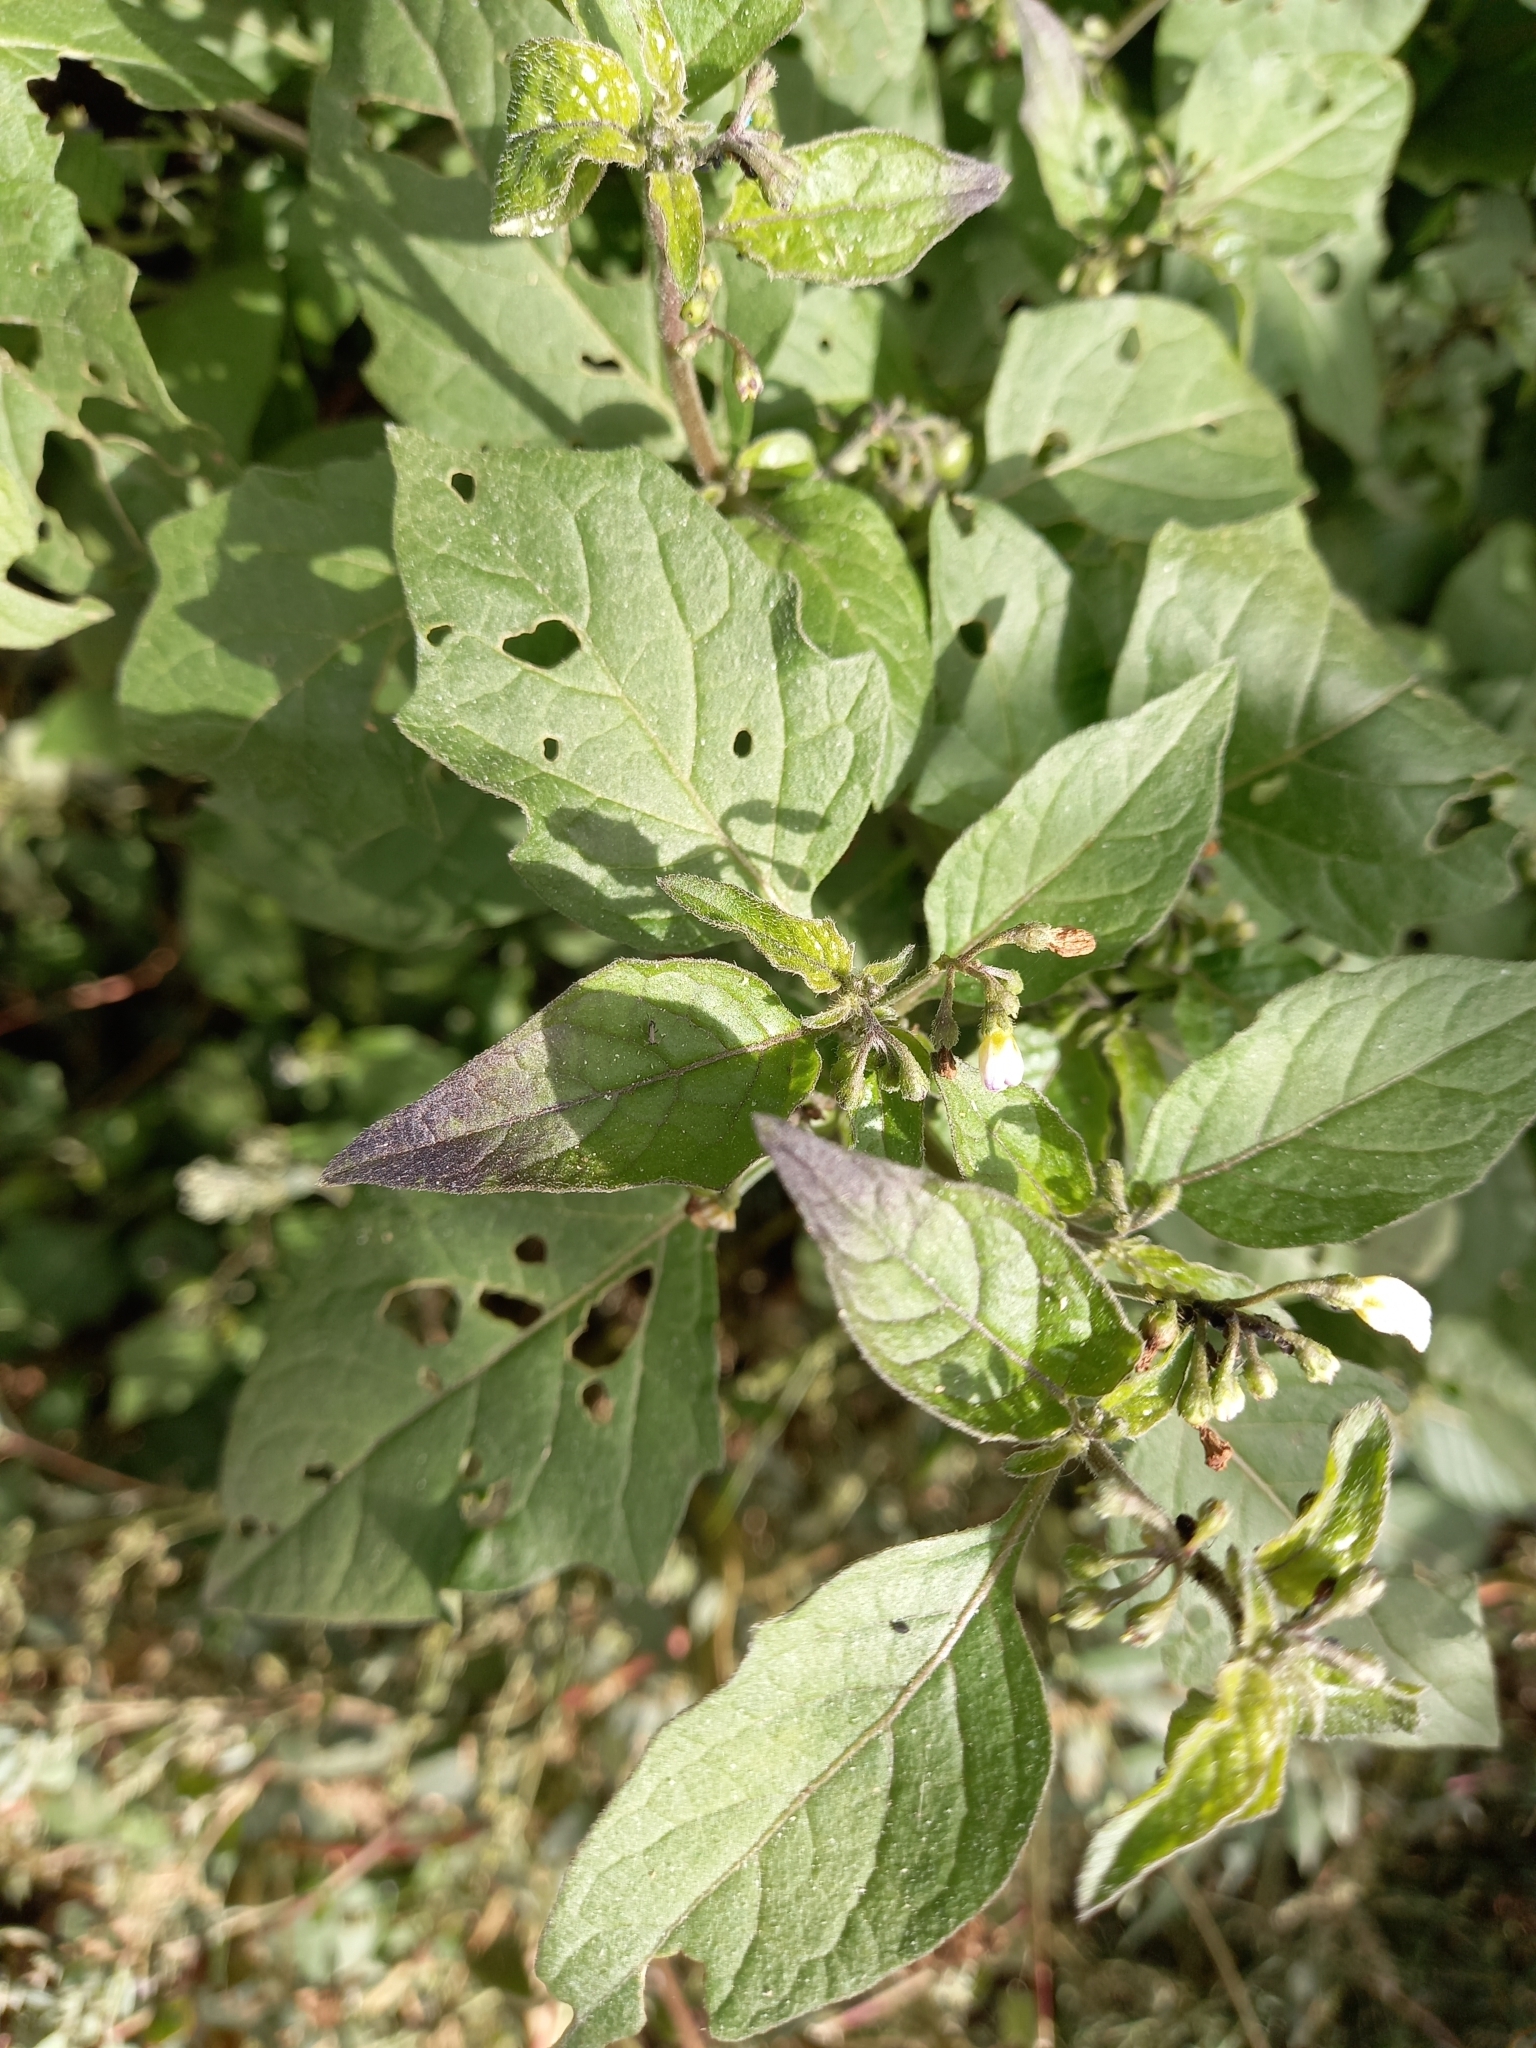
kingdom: Plantae
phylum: Tracheophyta
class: Magnoliopsida
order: Solanales
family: Solanaceae
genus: Solanum
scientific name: Solanum nigrum
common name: Black nightshade
